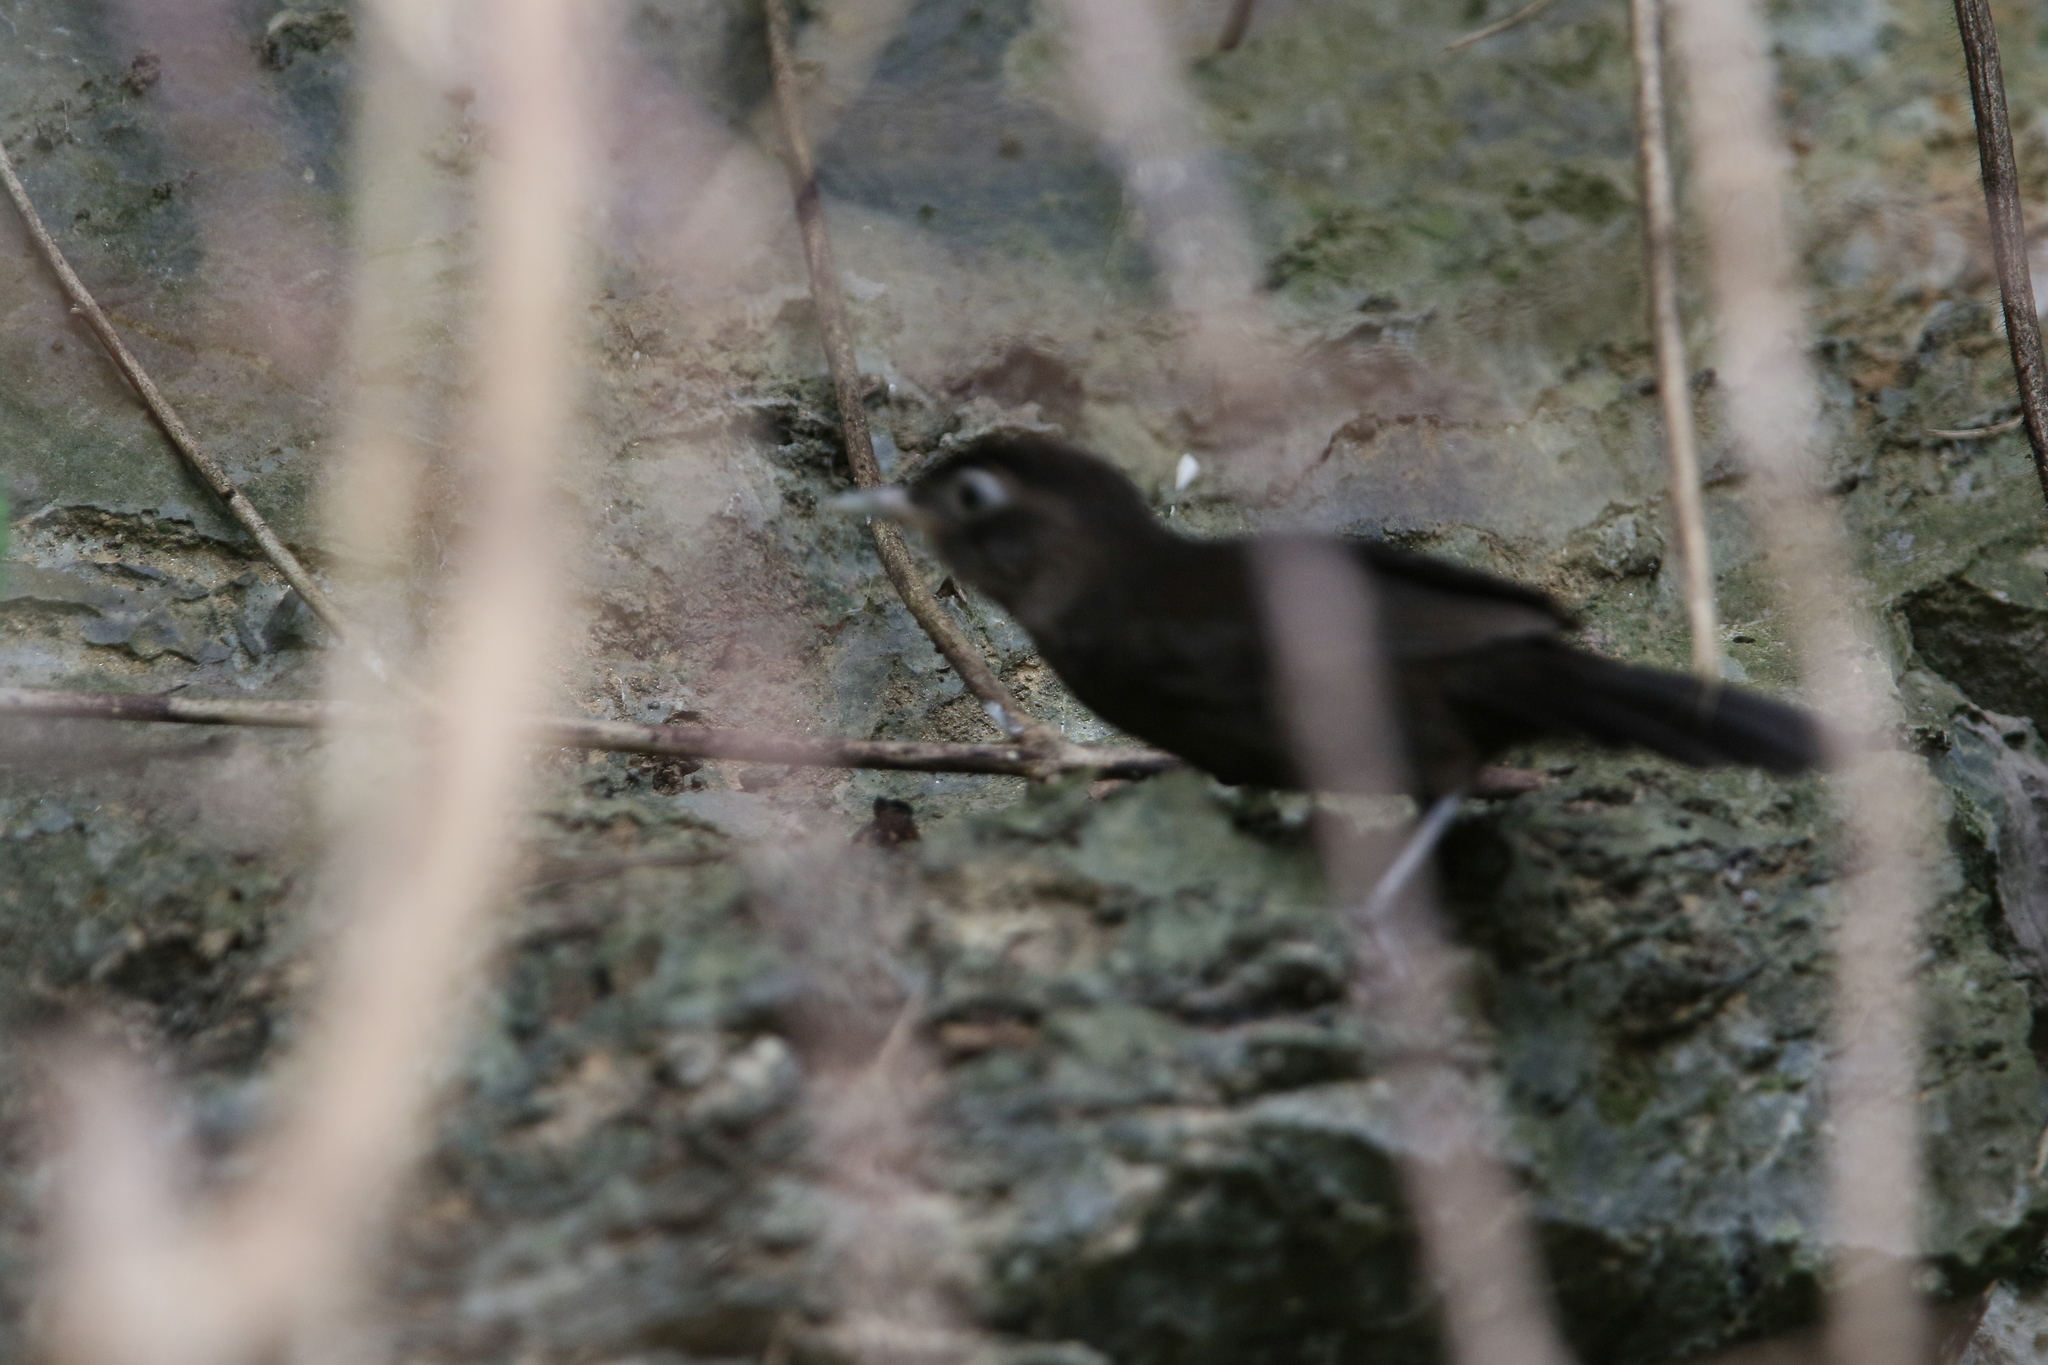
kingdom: Animalia
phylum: Chordata
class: Aves
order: Passeriformes
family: Timaliidae
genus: Stachyris
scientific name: Stachyris herberti
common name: Sooty babbler
